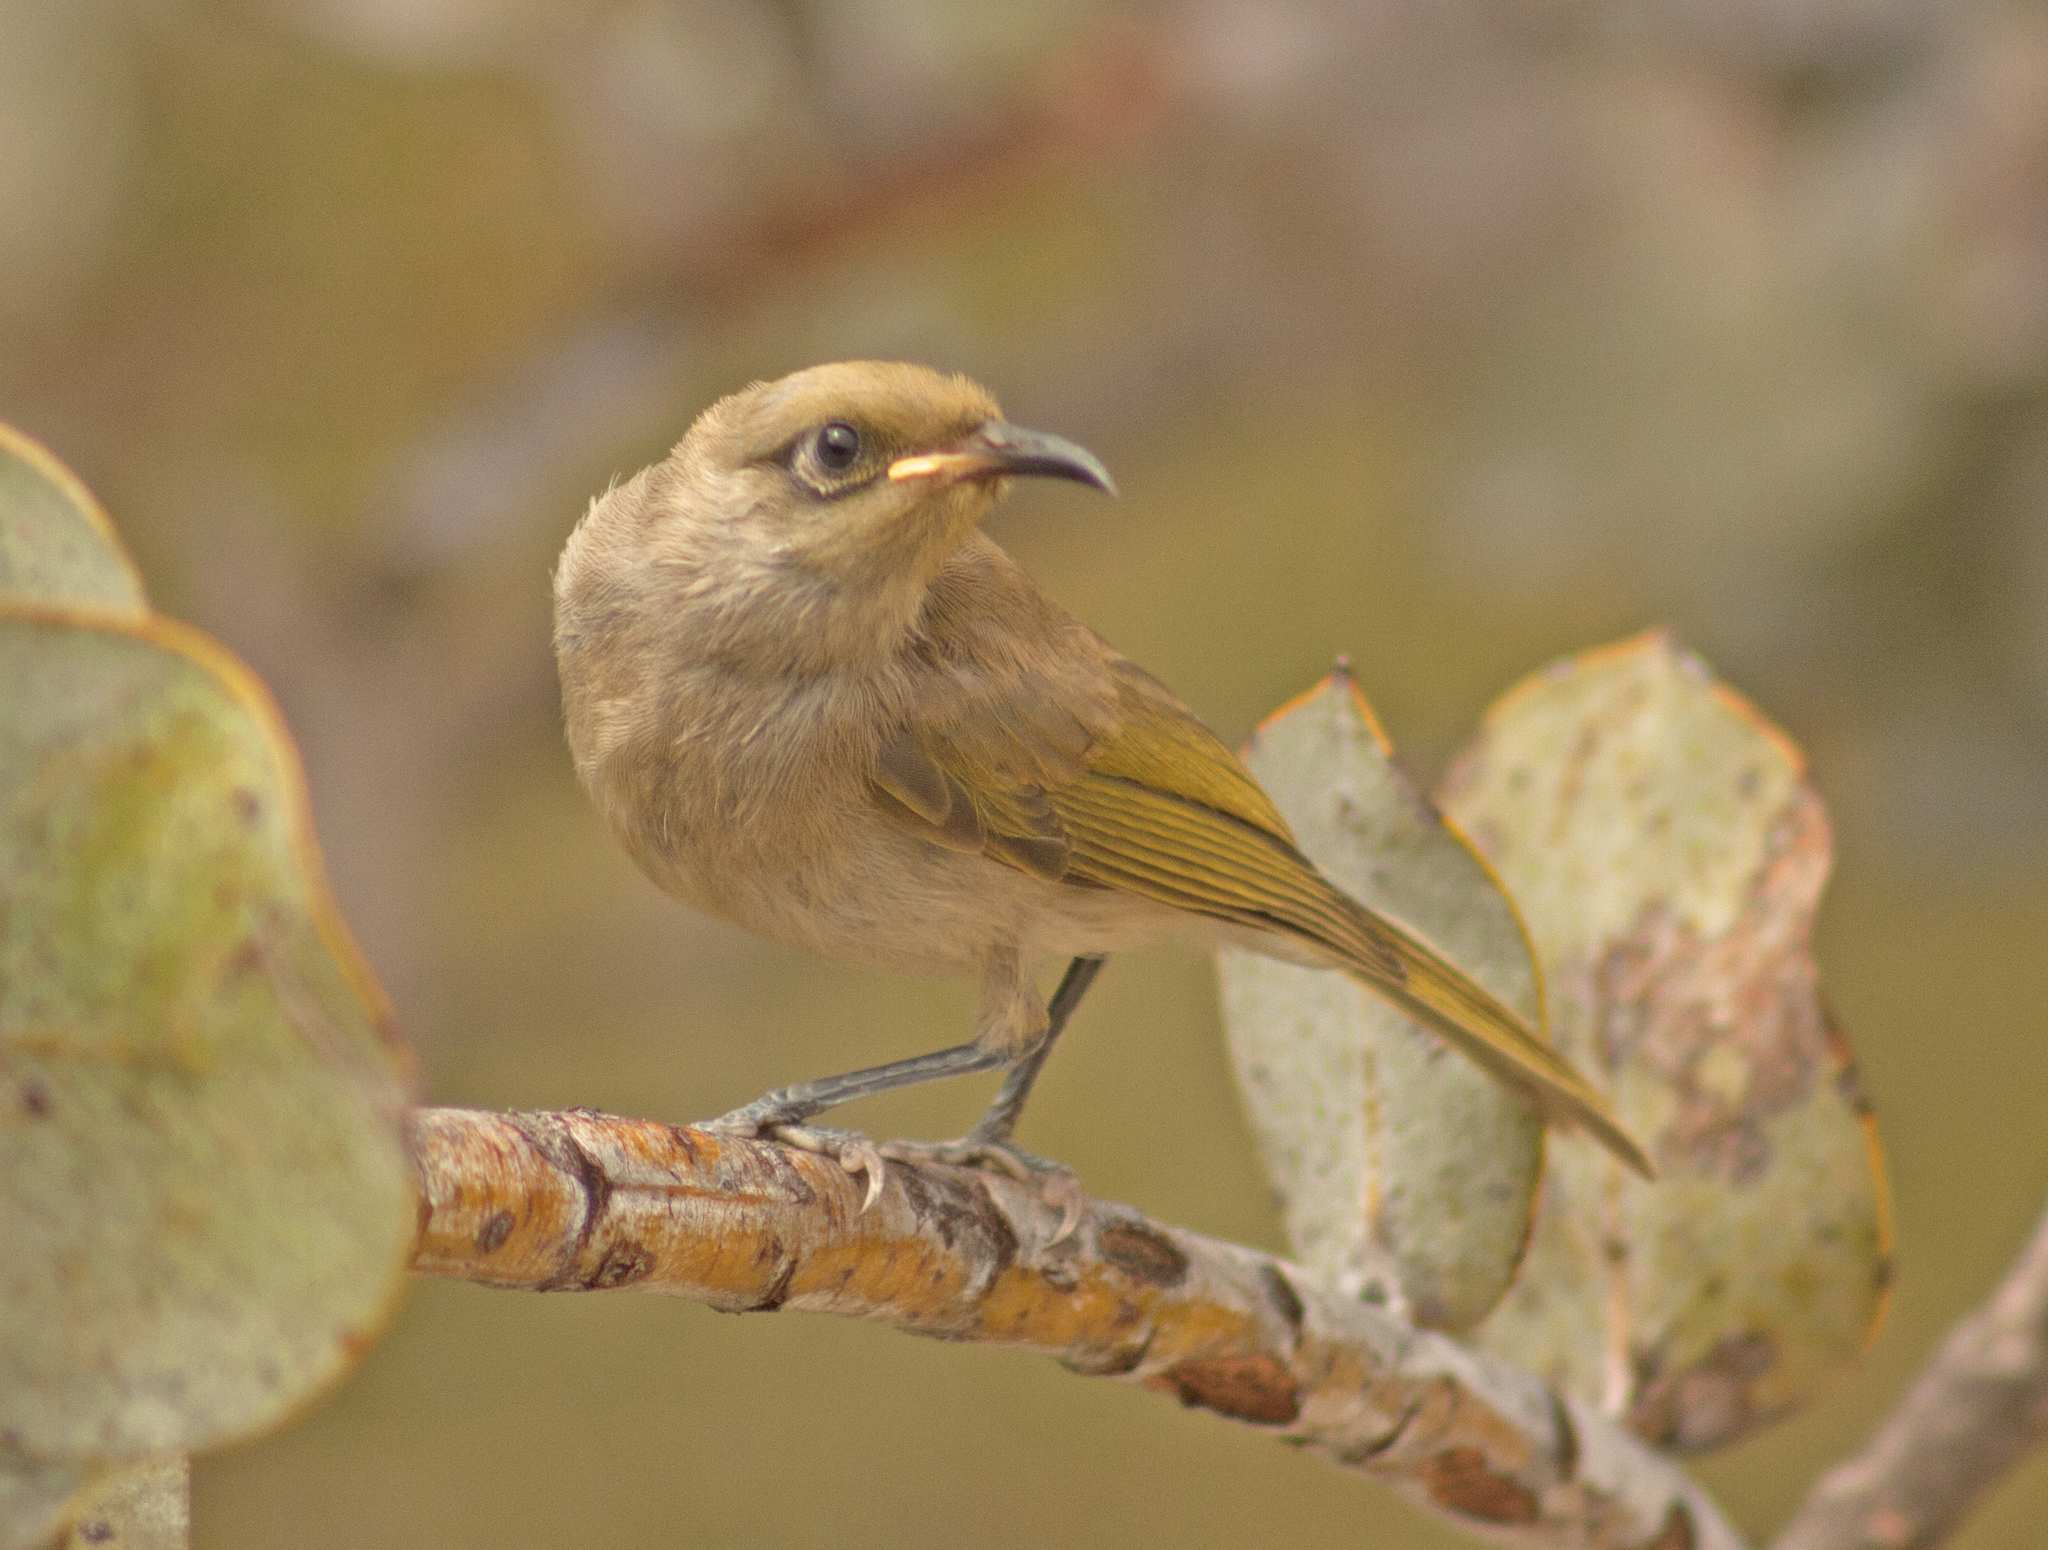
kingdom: Animalia
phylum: Chordata
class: Aves
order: Passeriformes
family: Meliphagidae
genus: Lichmera
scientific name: Lichmera indistincta
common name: Brown honeyeater
